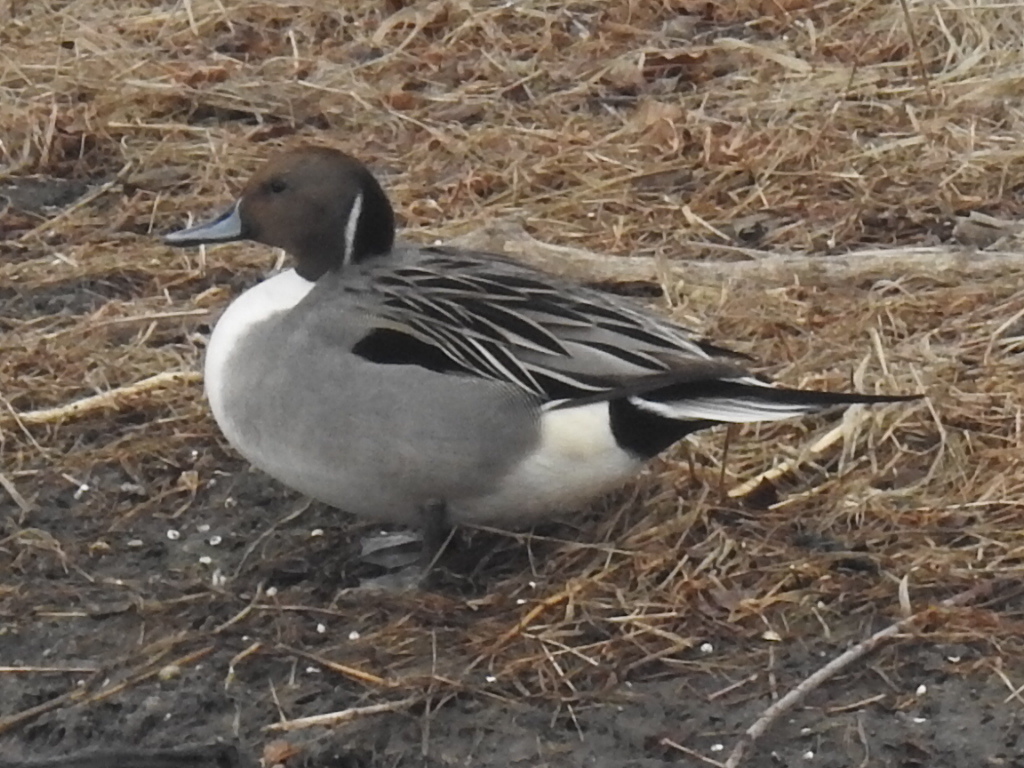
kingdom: Animalia
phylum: Chordata
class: Aves
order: Anseriformes
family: Anatidae
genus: Anas
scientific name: Anas acuta
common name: Northern pintail
